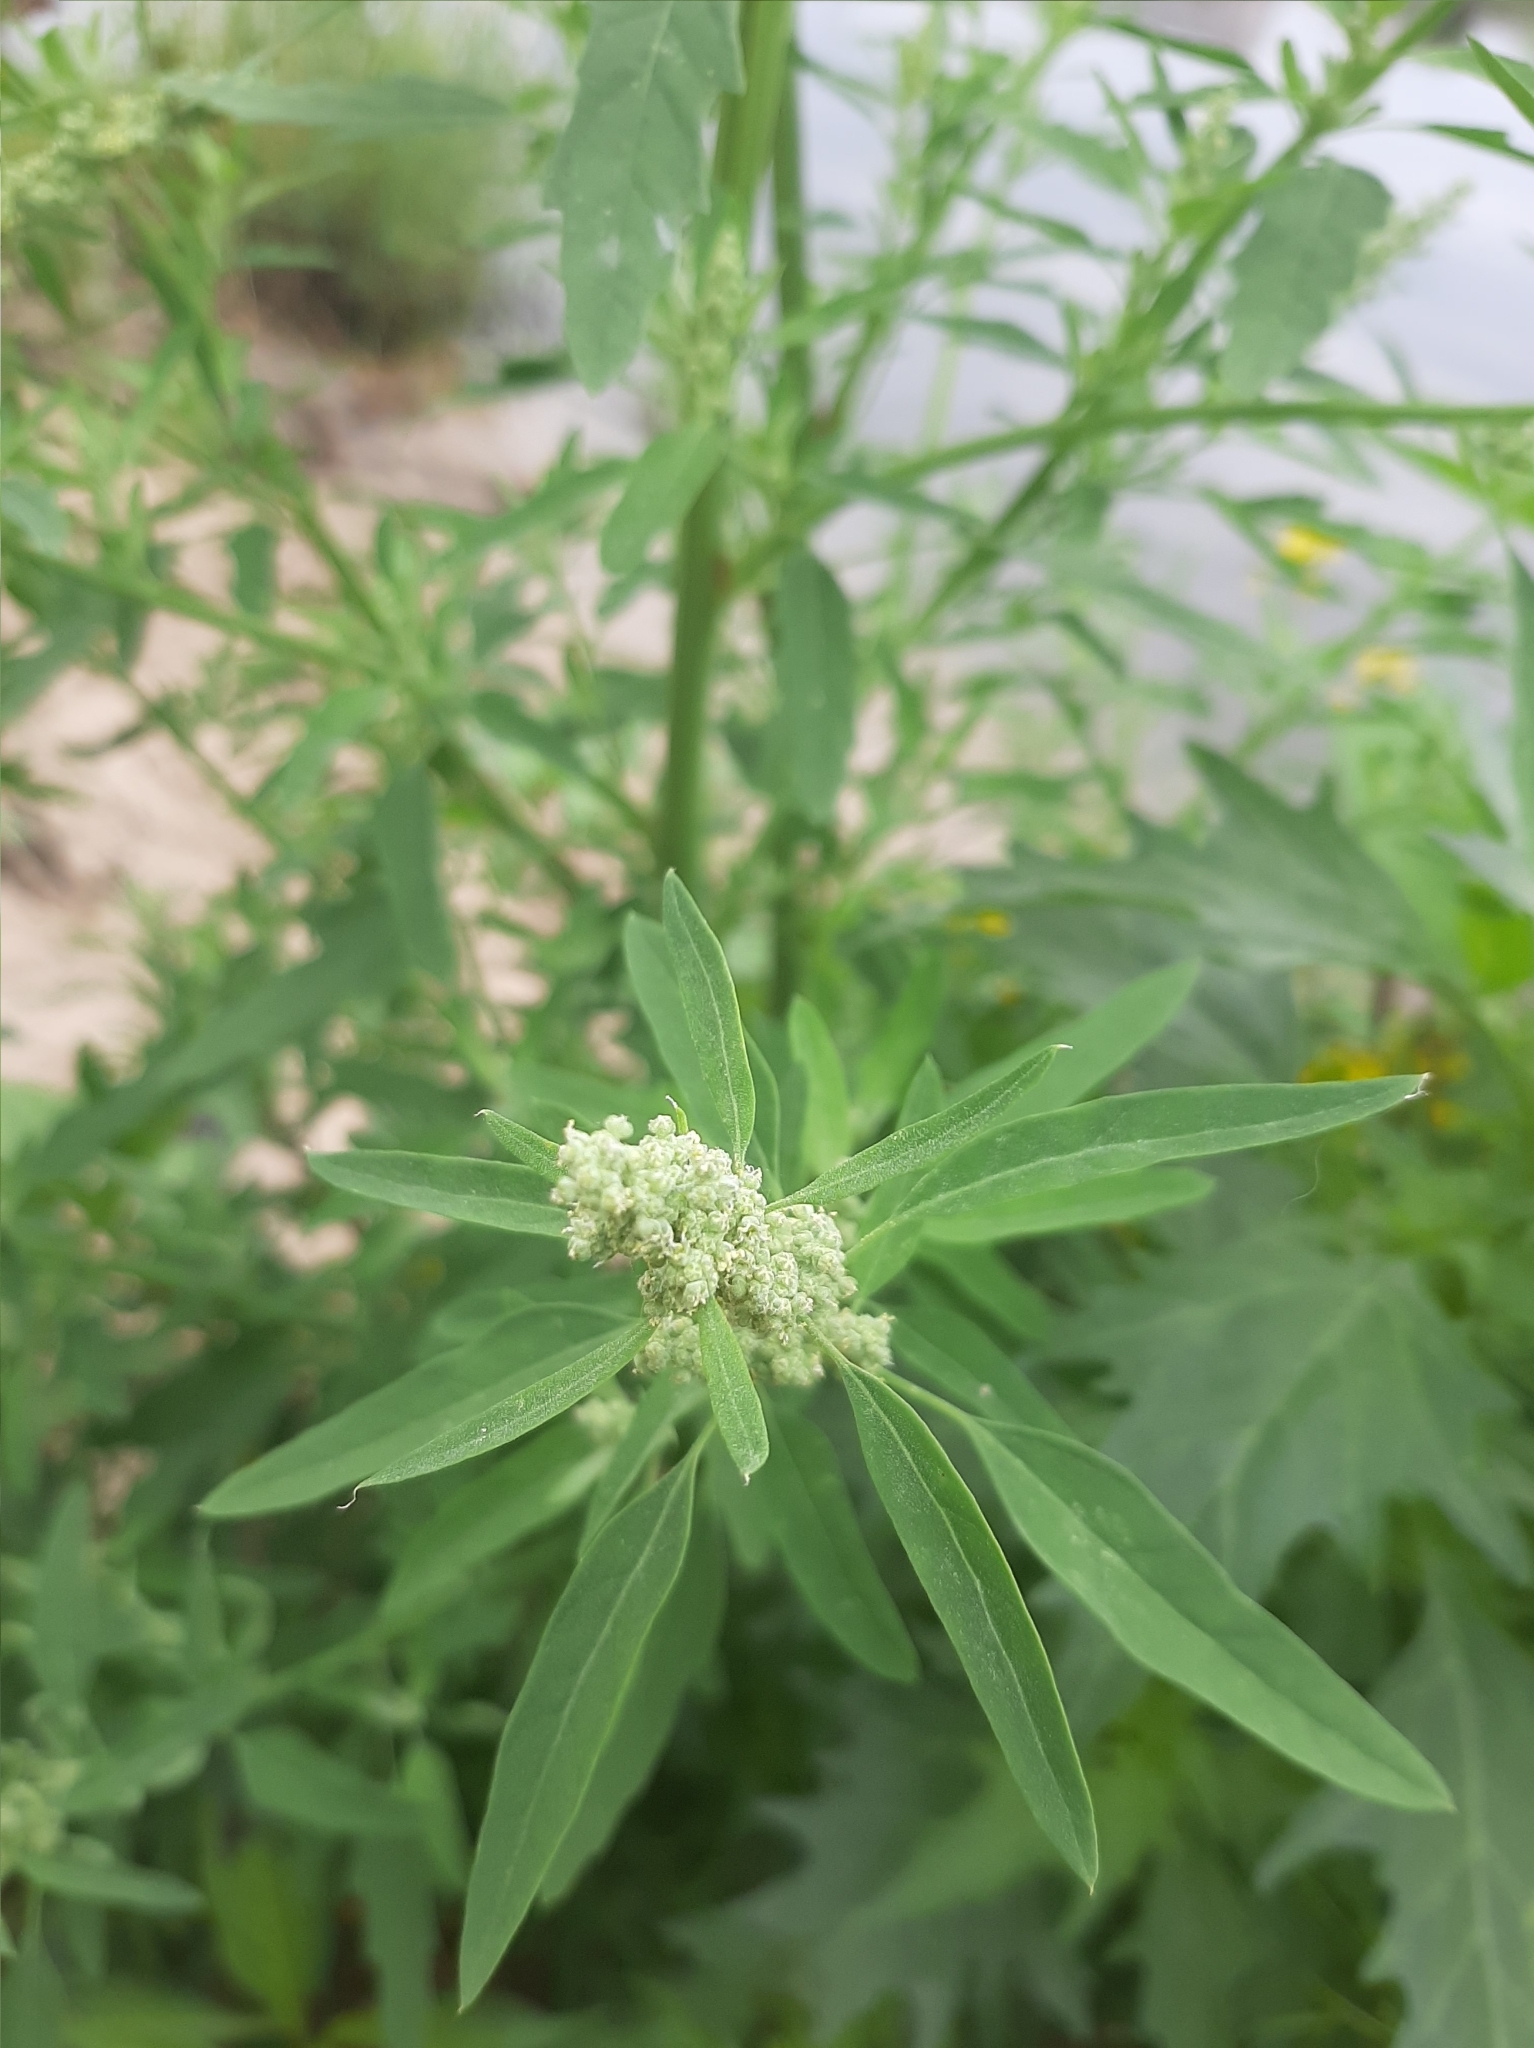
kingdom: Plantae
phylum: Tracheophyta
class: Magnoliopsida
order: Caryophyllales
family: Amaranthaceae
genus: Chenopodium
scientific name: Chenopodium album
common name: Fat-hen
